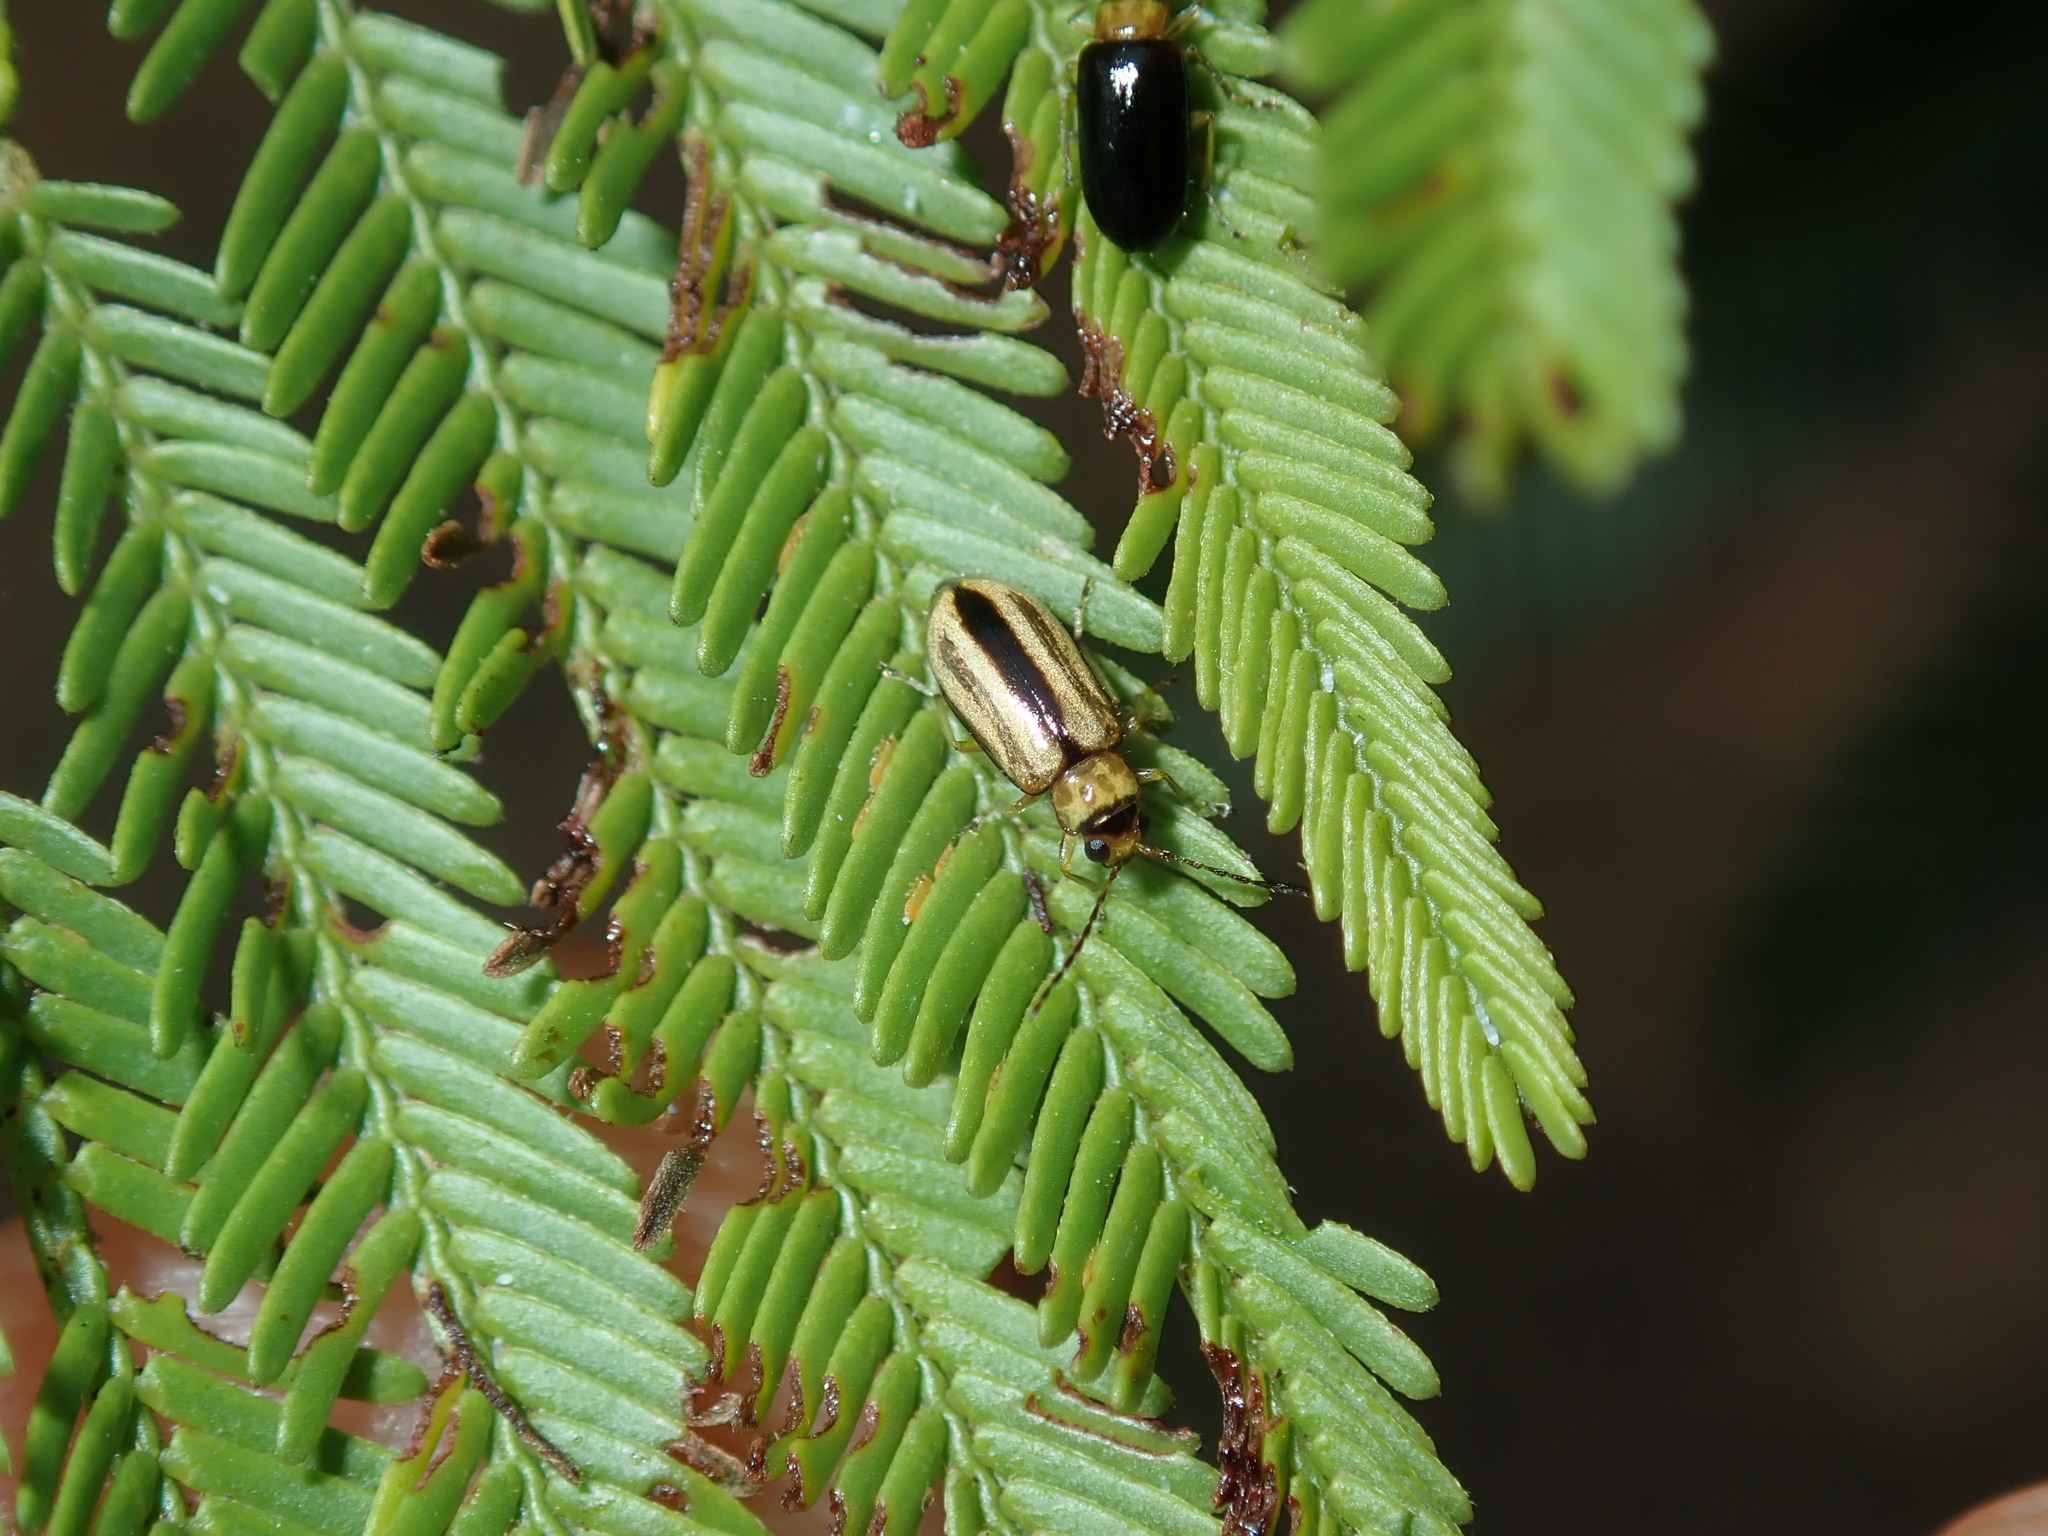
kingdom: Animalia
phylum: Arthropoda
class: Insecta
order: Coleoptera
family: Chrysomelidae
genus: Monolepta
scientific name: Monolepta
